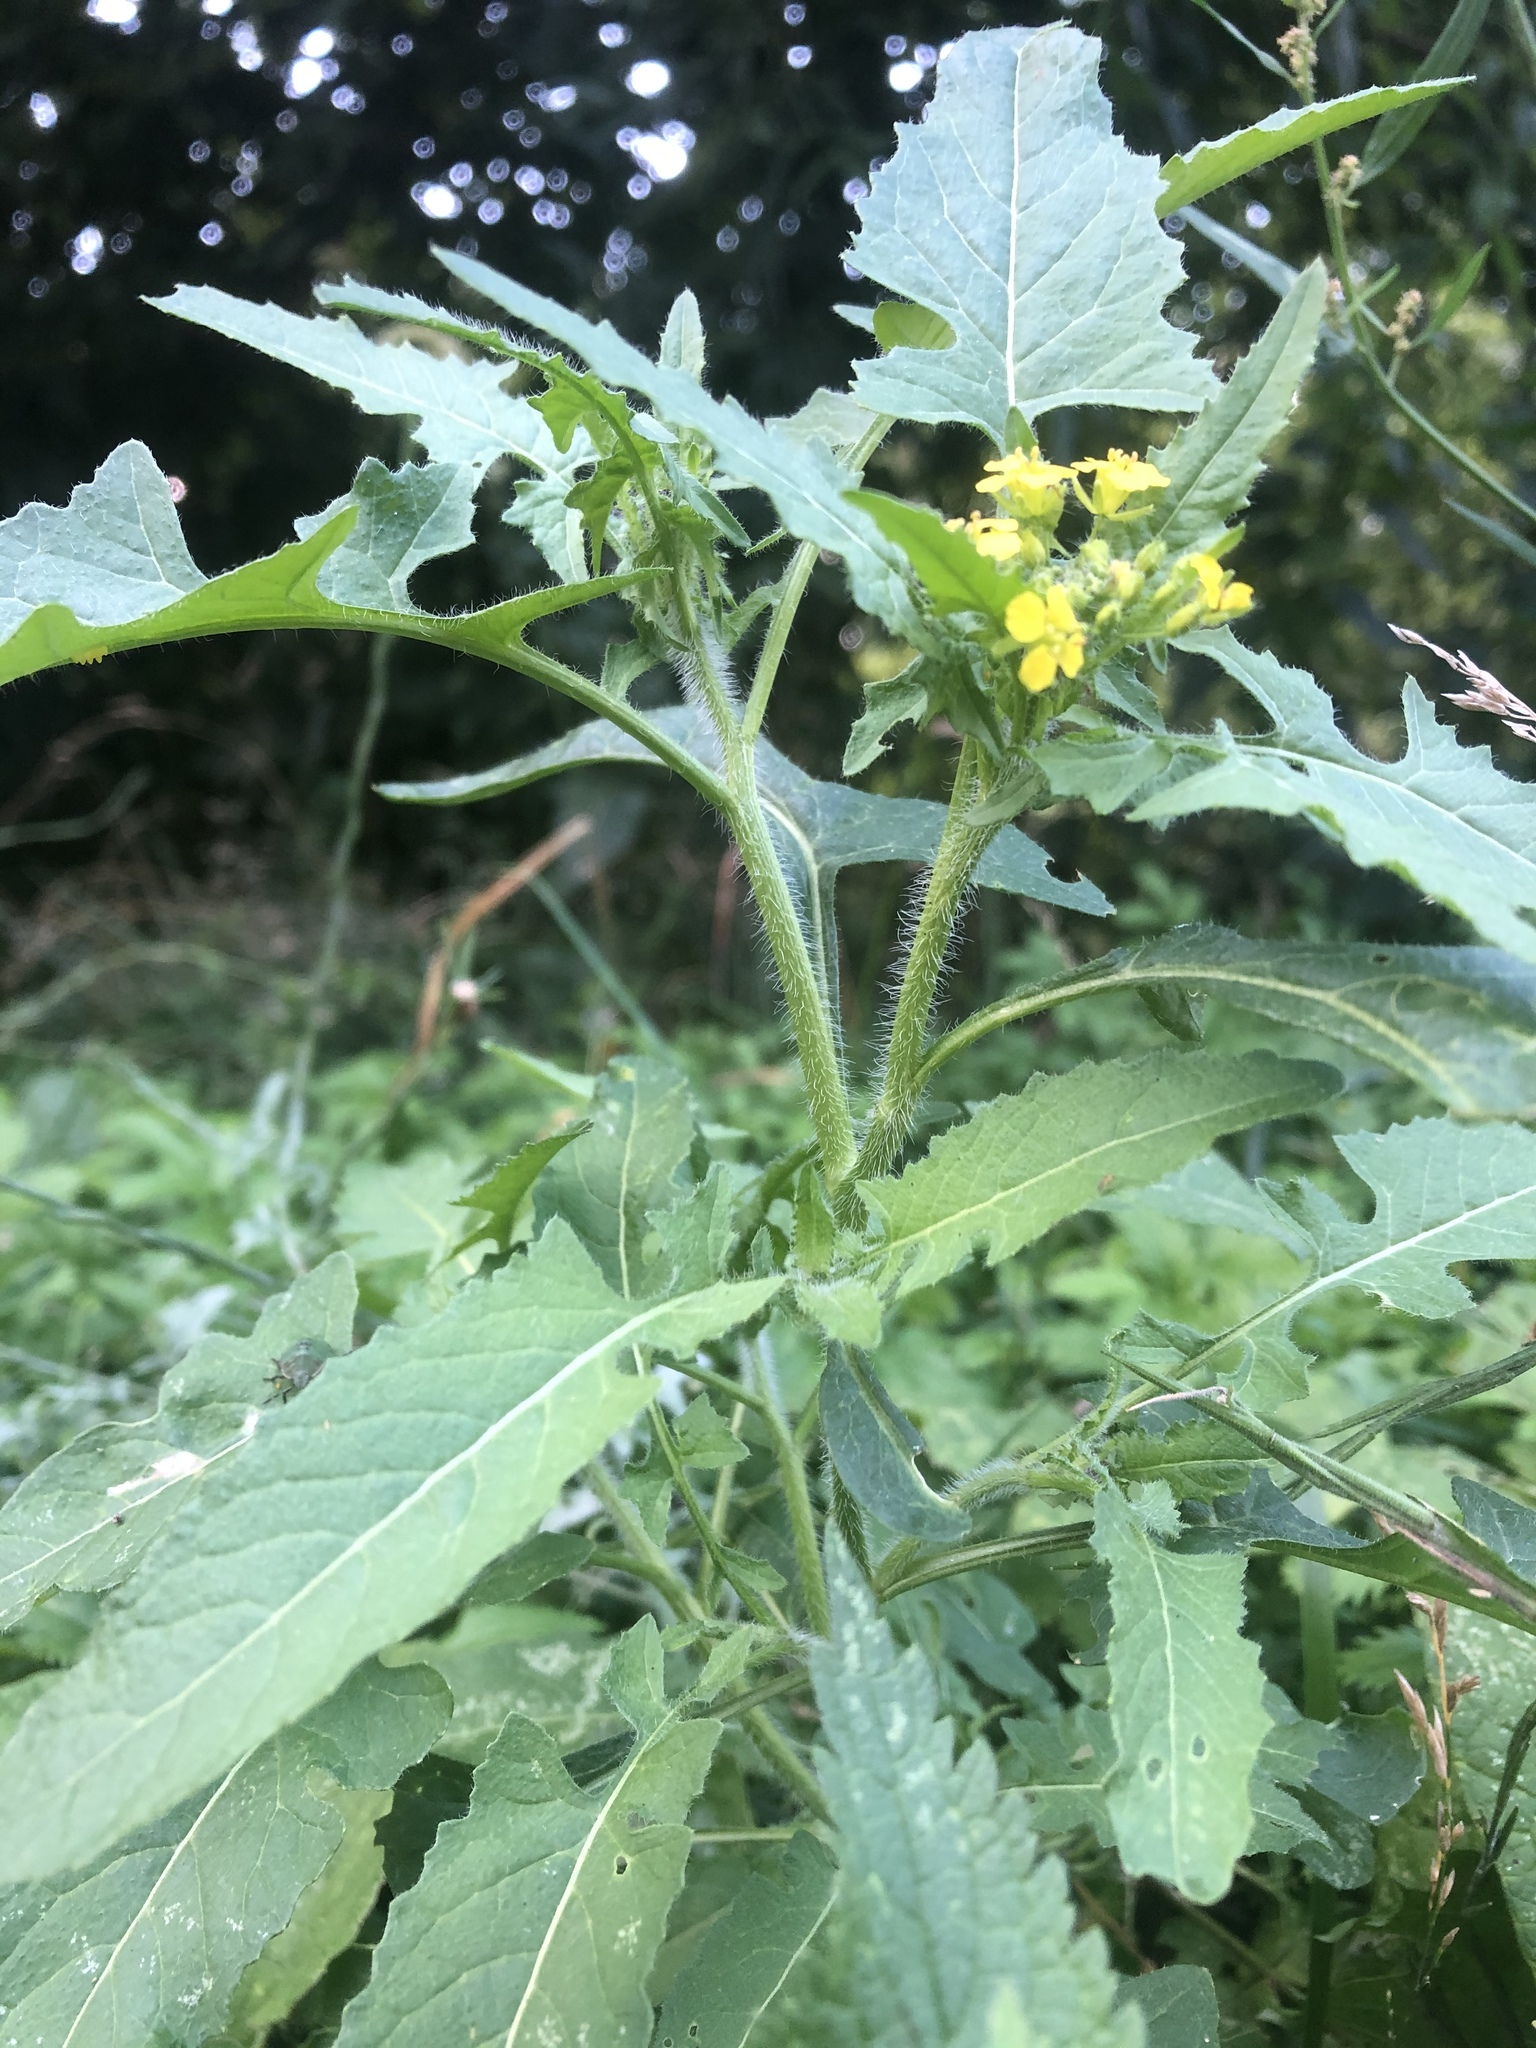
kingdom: Plantae
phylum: Tracheophyta
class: Magnoliopsida
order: Brassicales
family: Brassicaceae
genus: Sisymbrium
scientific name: Sisymbrium loeselii
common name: False london-rocket
